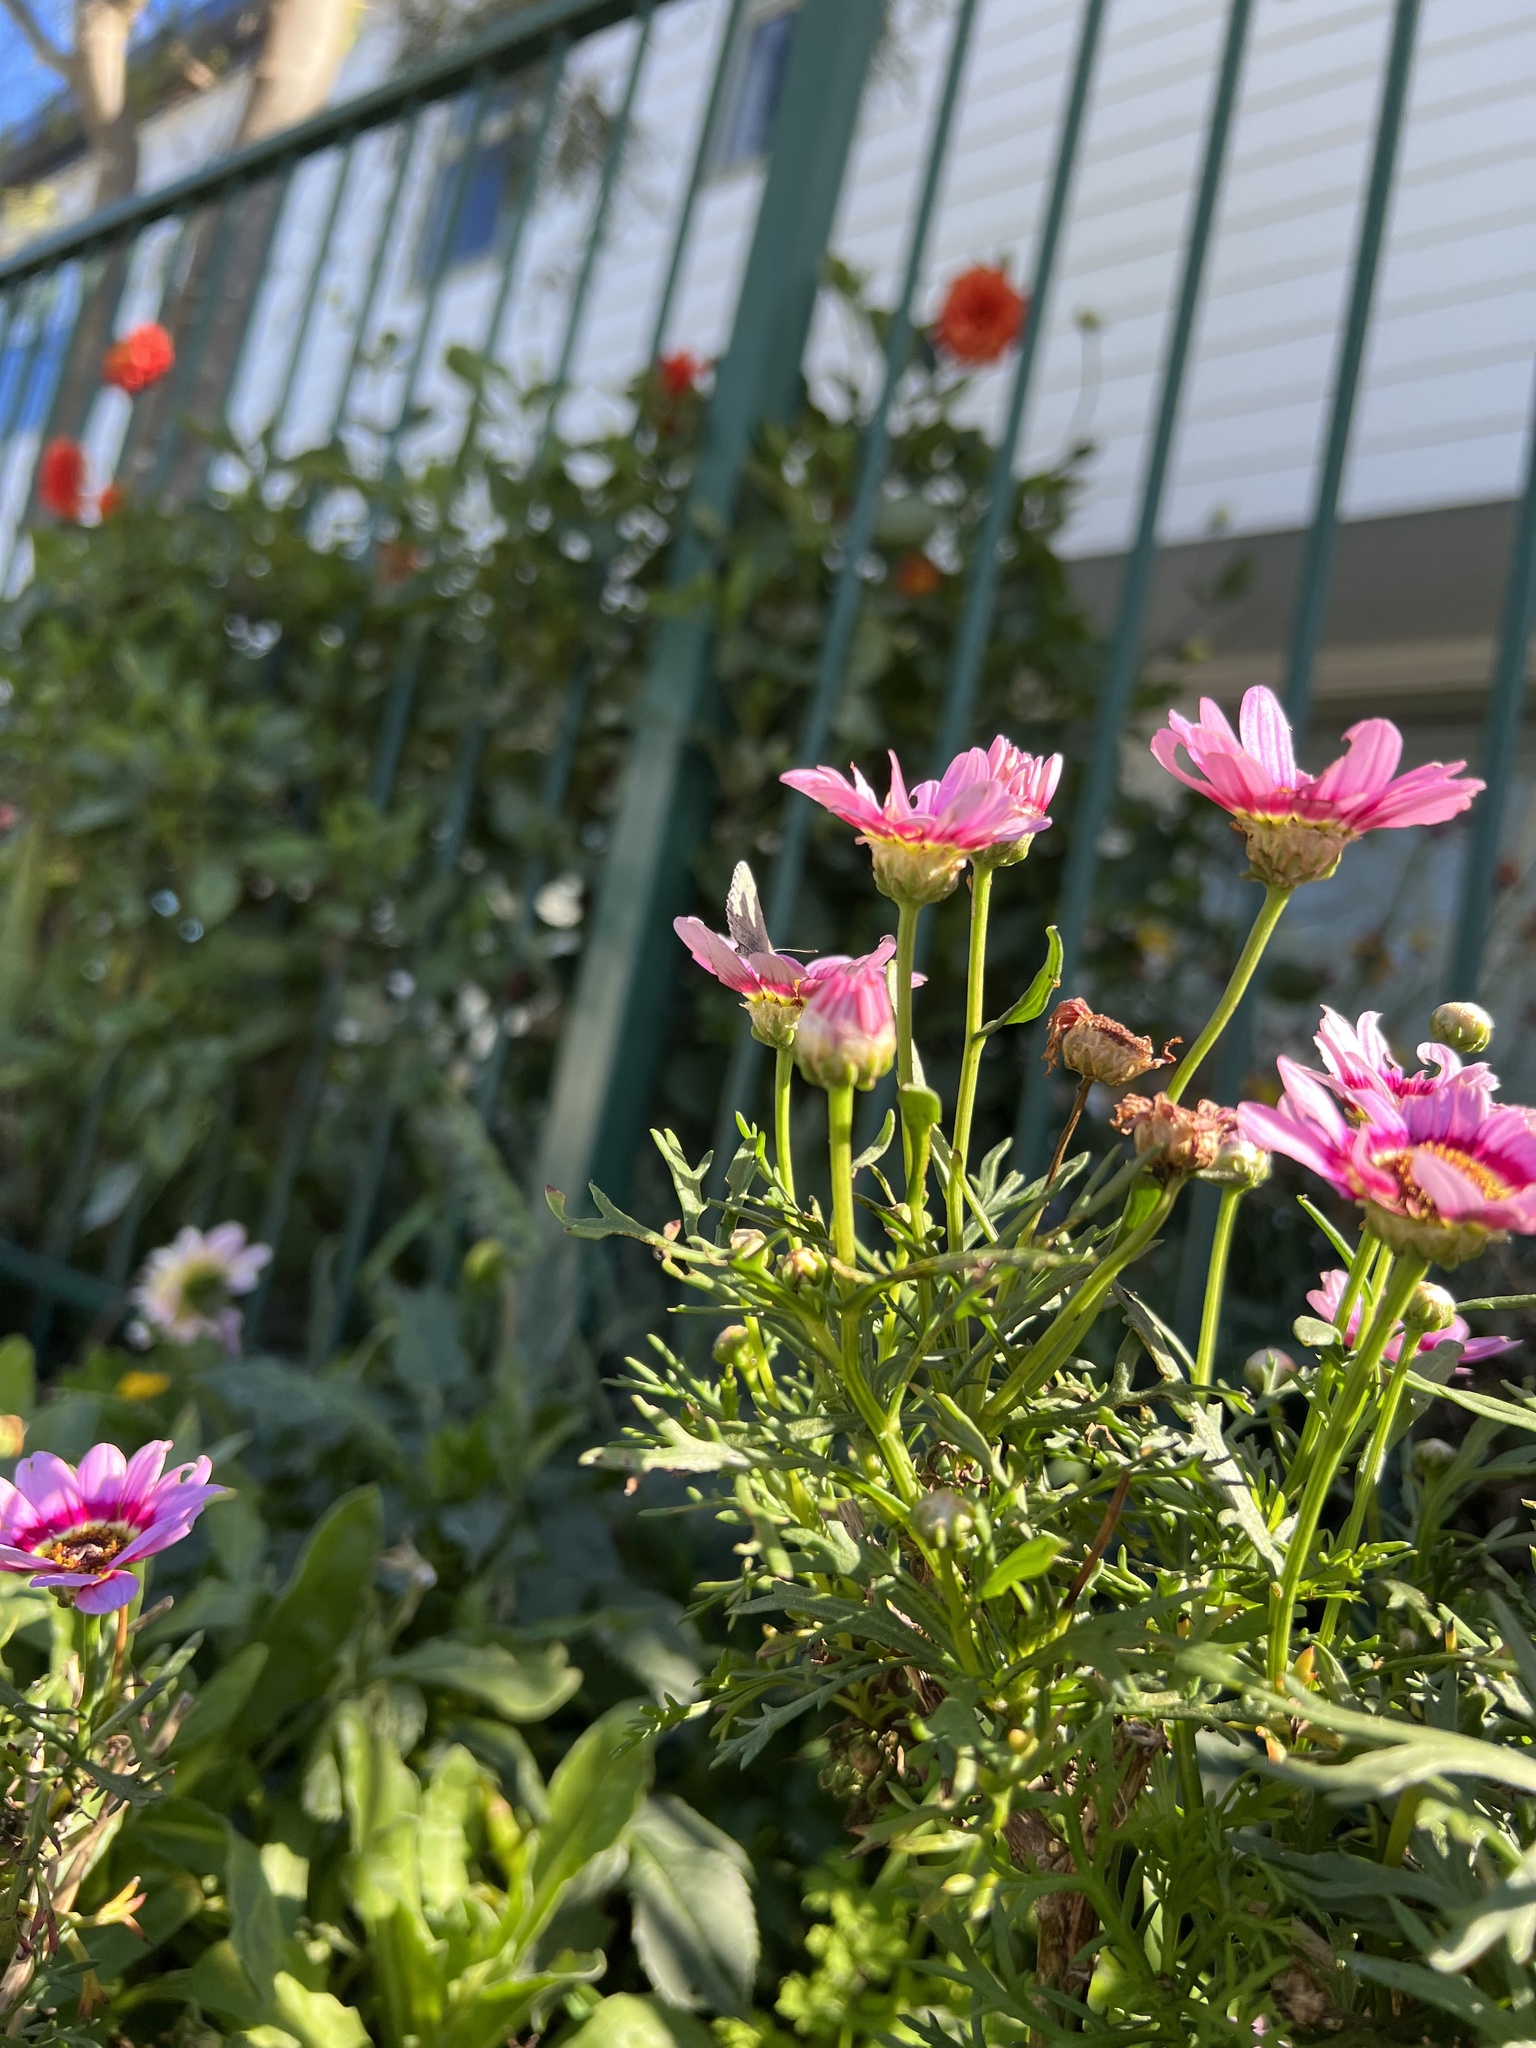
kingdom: Animalia
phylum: Arthropoda
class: Insecta
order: Lepidoptera
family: Lycaenidae
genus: Zizina
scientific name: Zizina labradus
